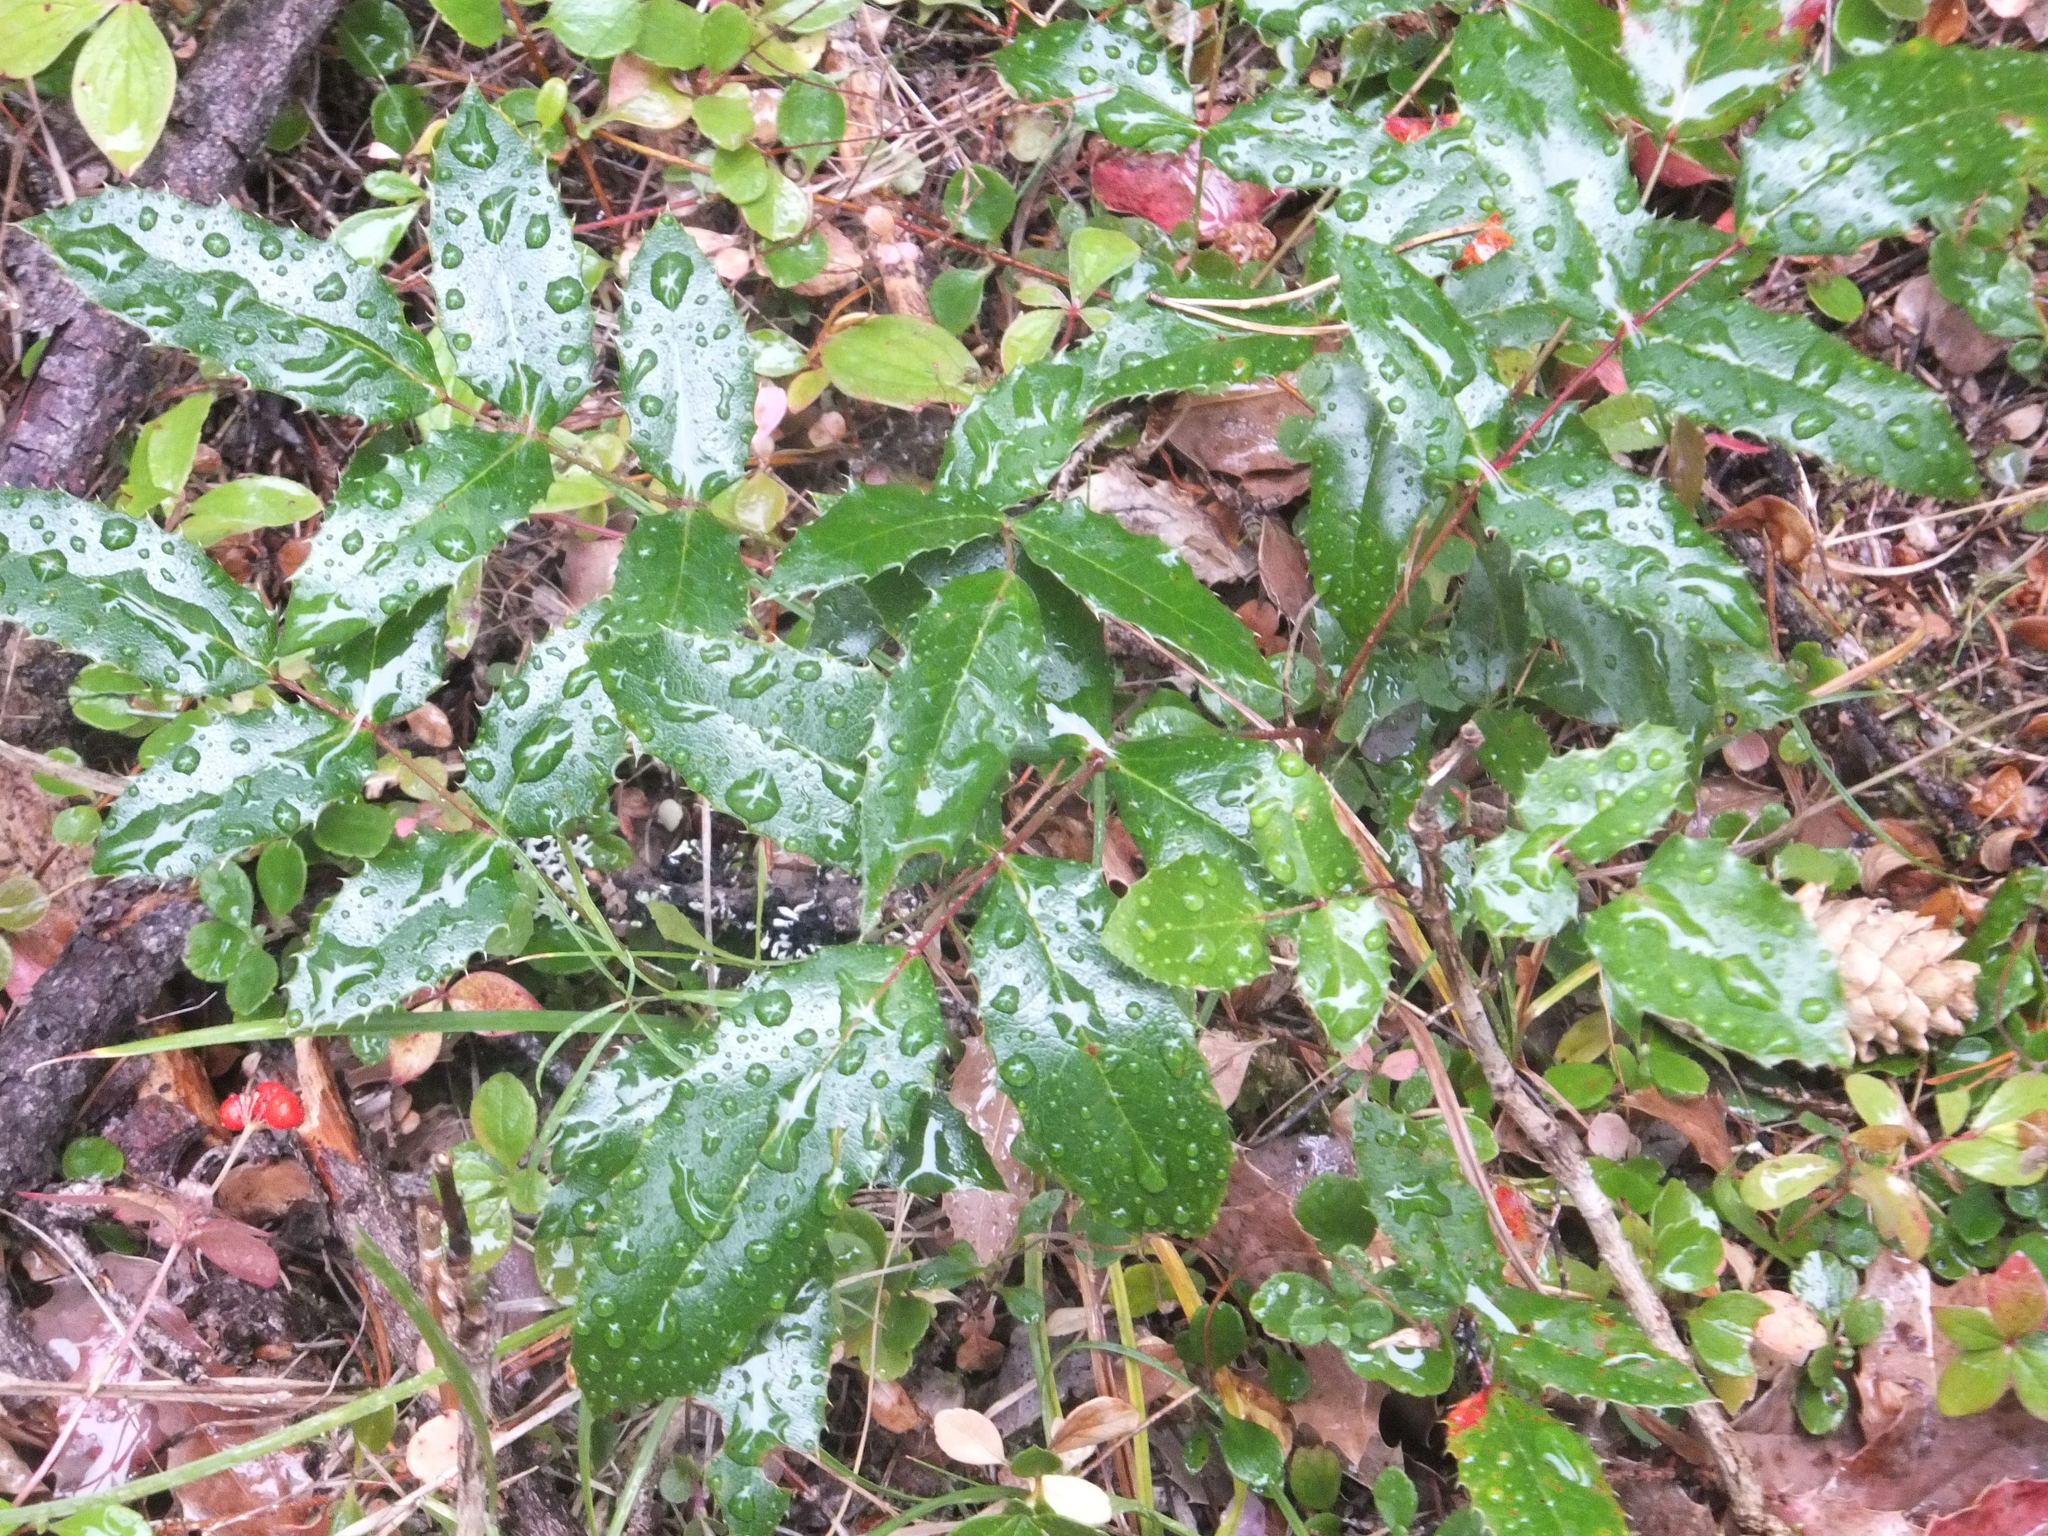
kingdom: Plantae
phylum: Tracheophyta
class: Magnoliopsida
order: Ranunculales
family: Berberidaceae
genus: Mahonia
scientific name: Mahonia aquifolium
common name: Oregon-grape
